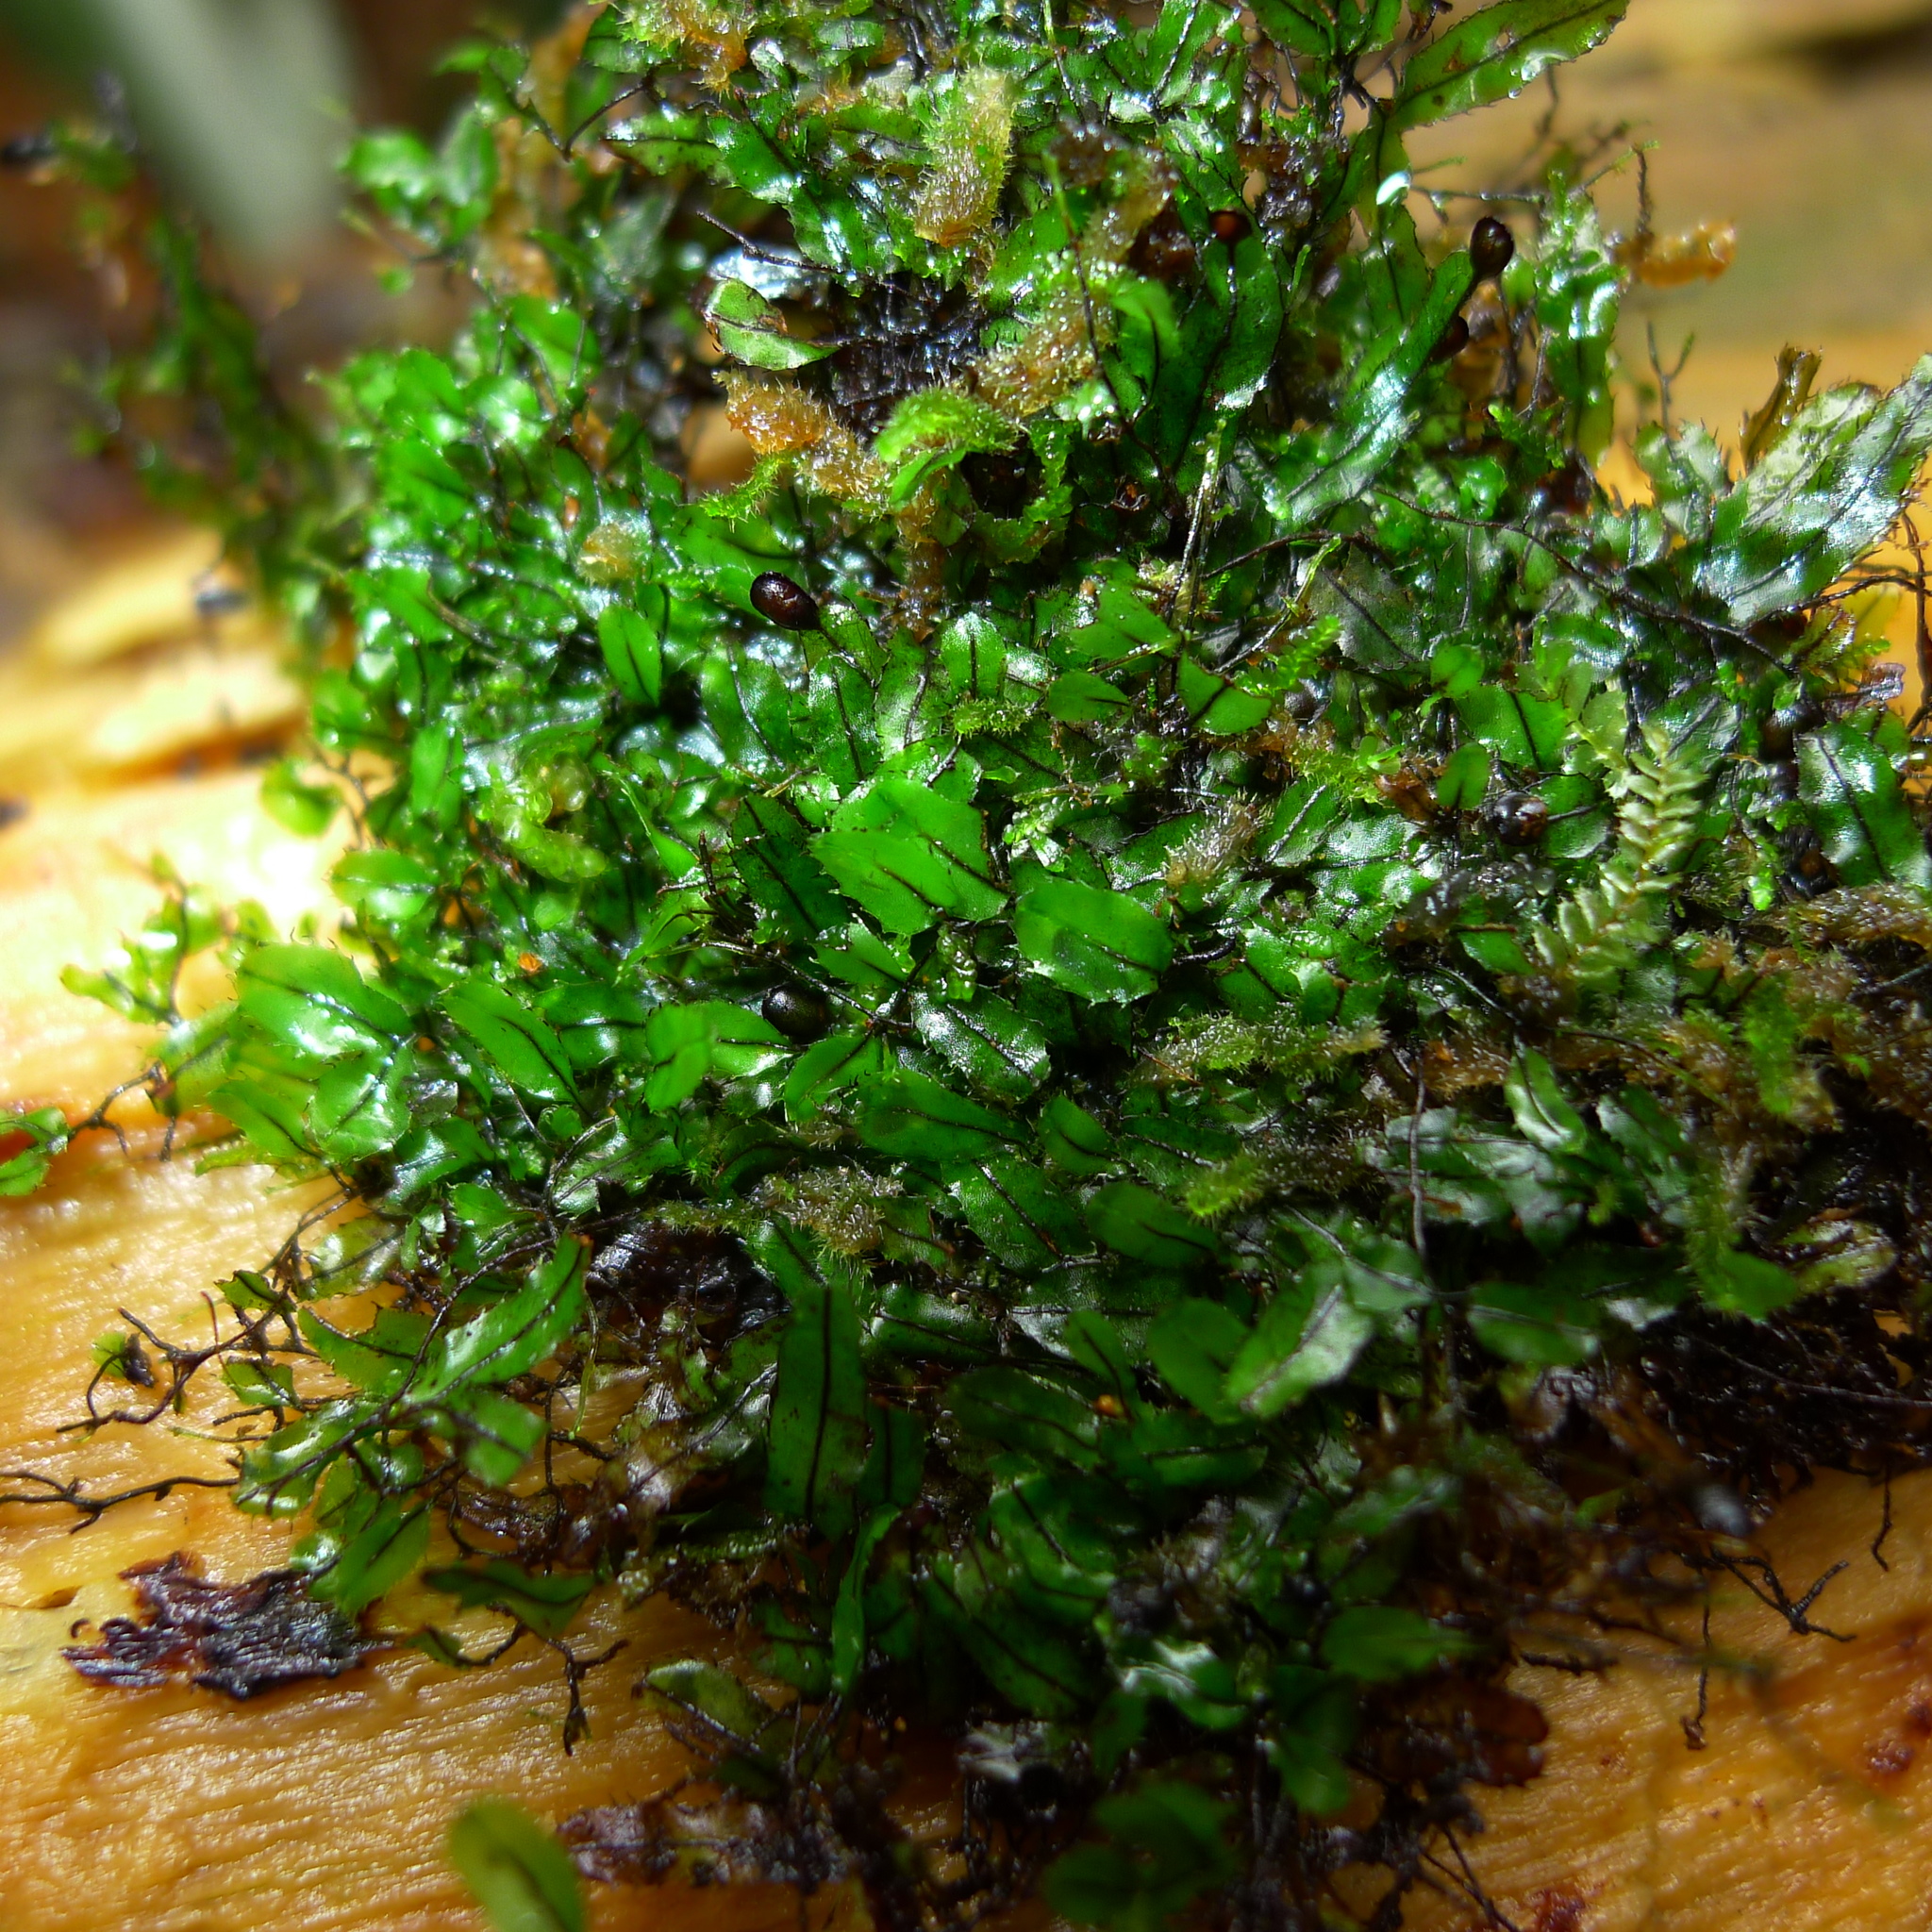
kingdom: Plantae
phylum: Tracheophyta
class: Polypodiopsida
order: Hymenophyllales
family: Hymenophyllaceae
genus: Hymenophyllum
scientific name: Hymenophyllum armstrongii
